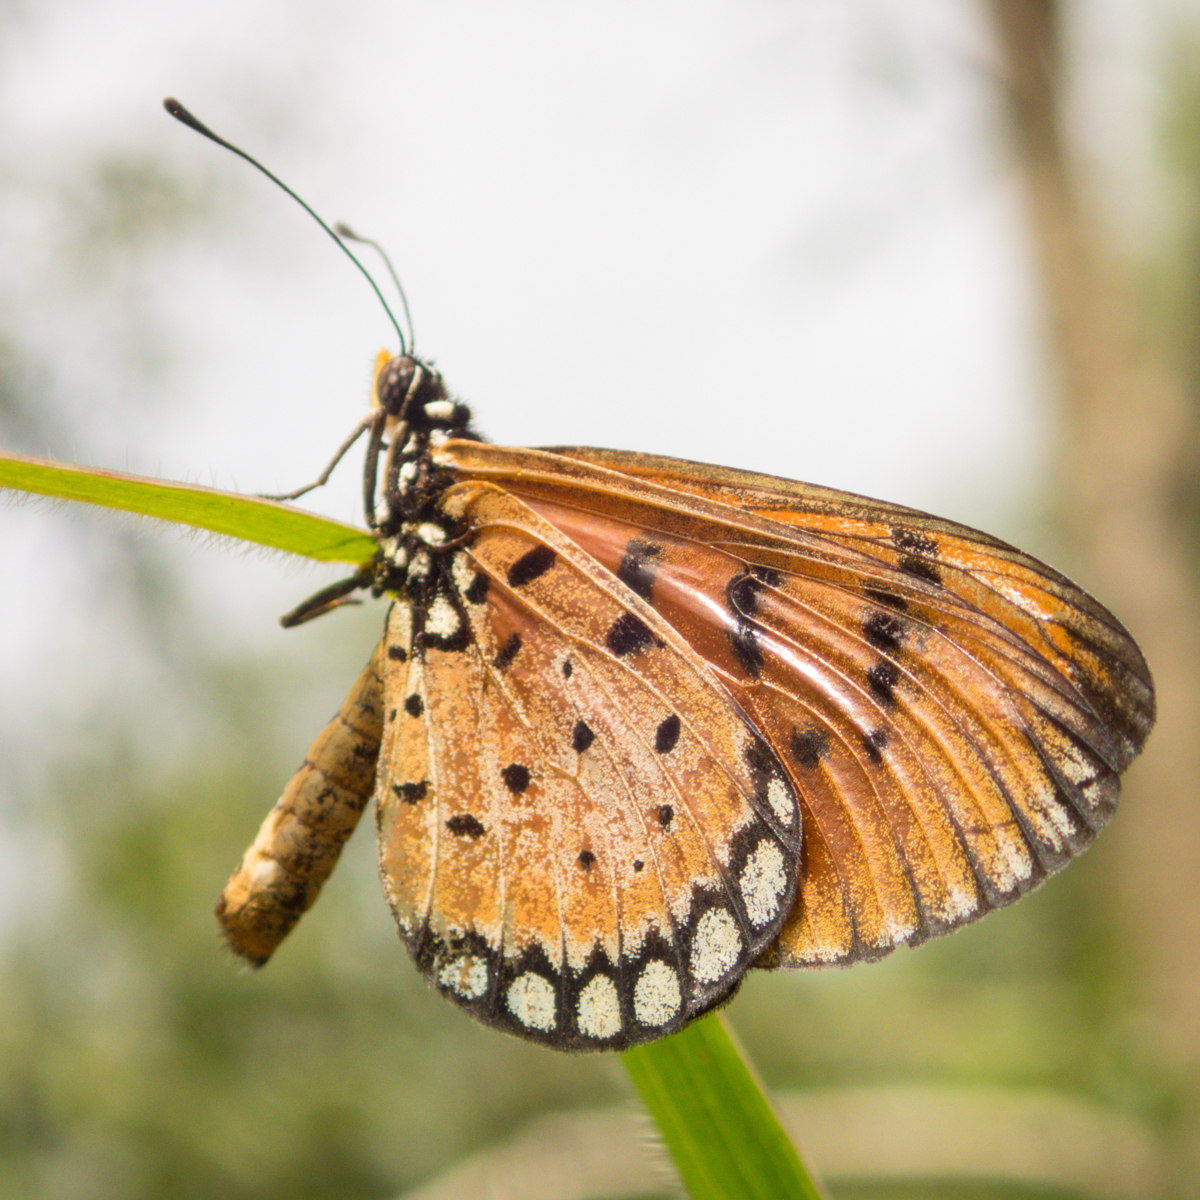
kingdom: Animalia
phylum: Arthropoda
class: Insecta
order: Lepidoptera
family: Nymphalidae
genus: Acraea
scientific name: Acraea terpsicore
